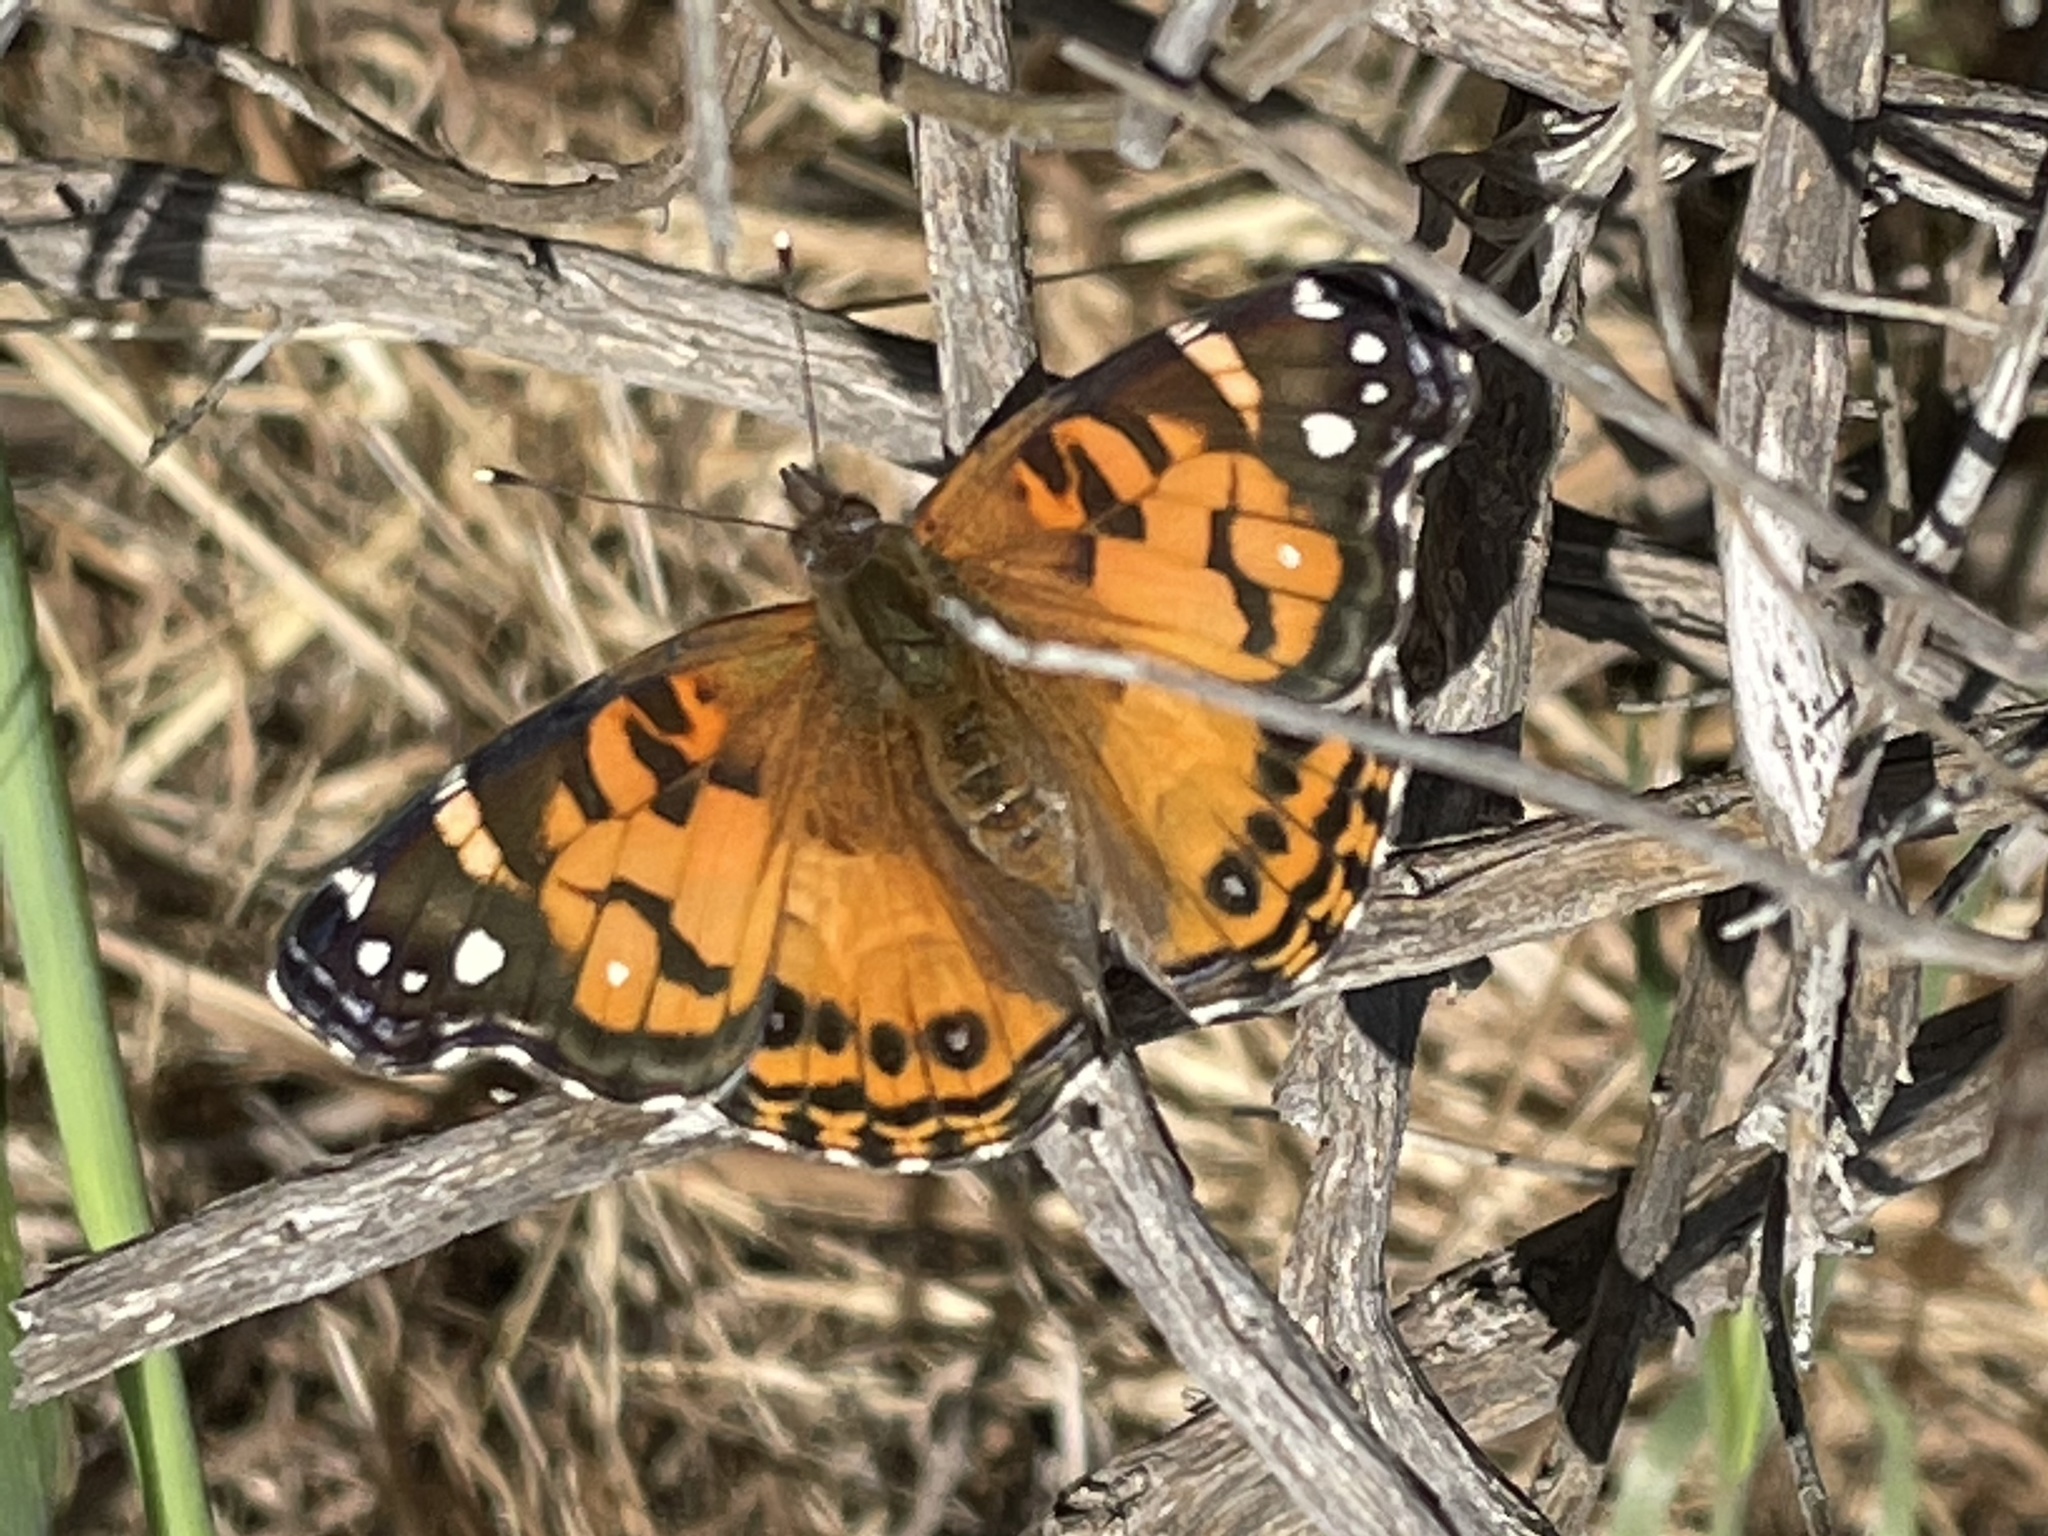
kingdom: Animalia
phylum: Arthropoda
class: Insecta
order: Lepidoptera
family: Nymphalidae
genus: Vanessa
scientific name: Vanessa virginiensis
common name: American lady
